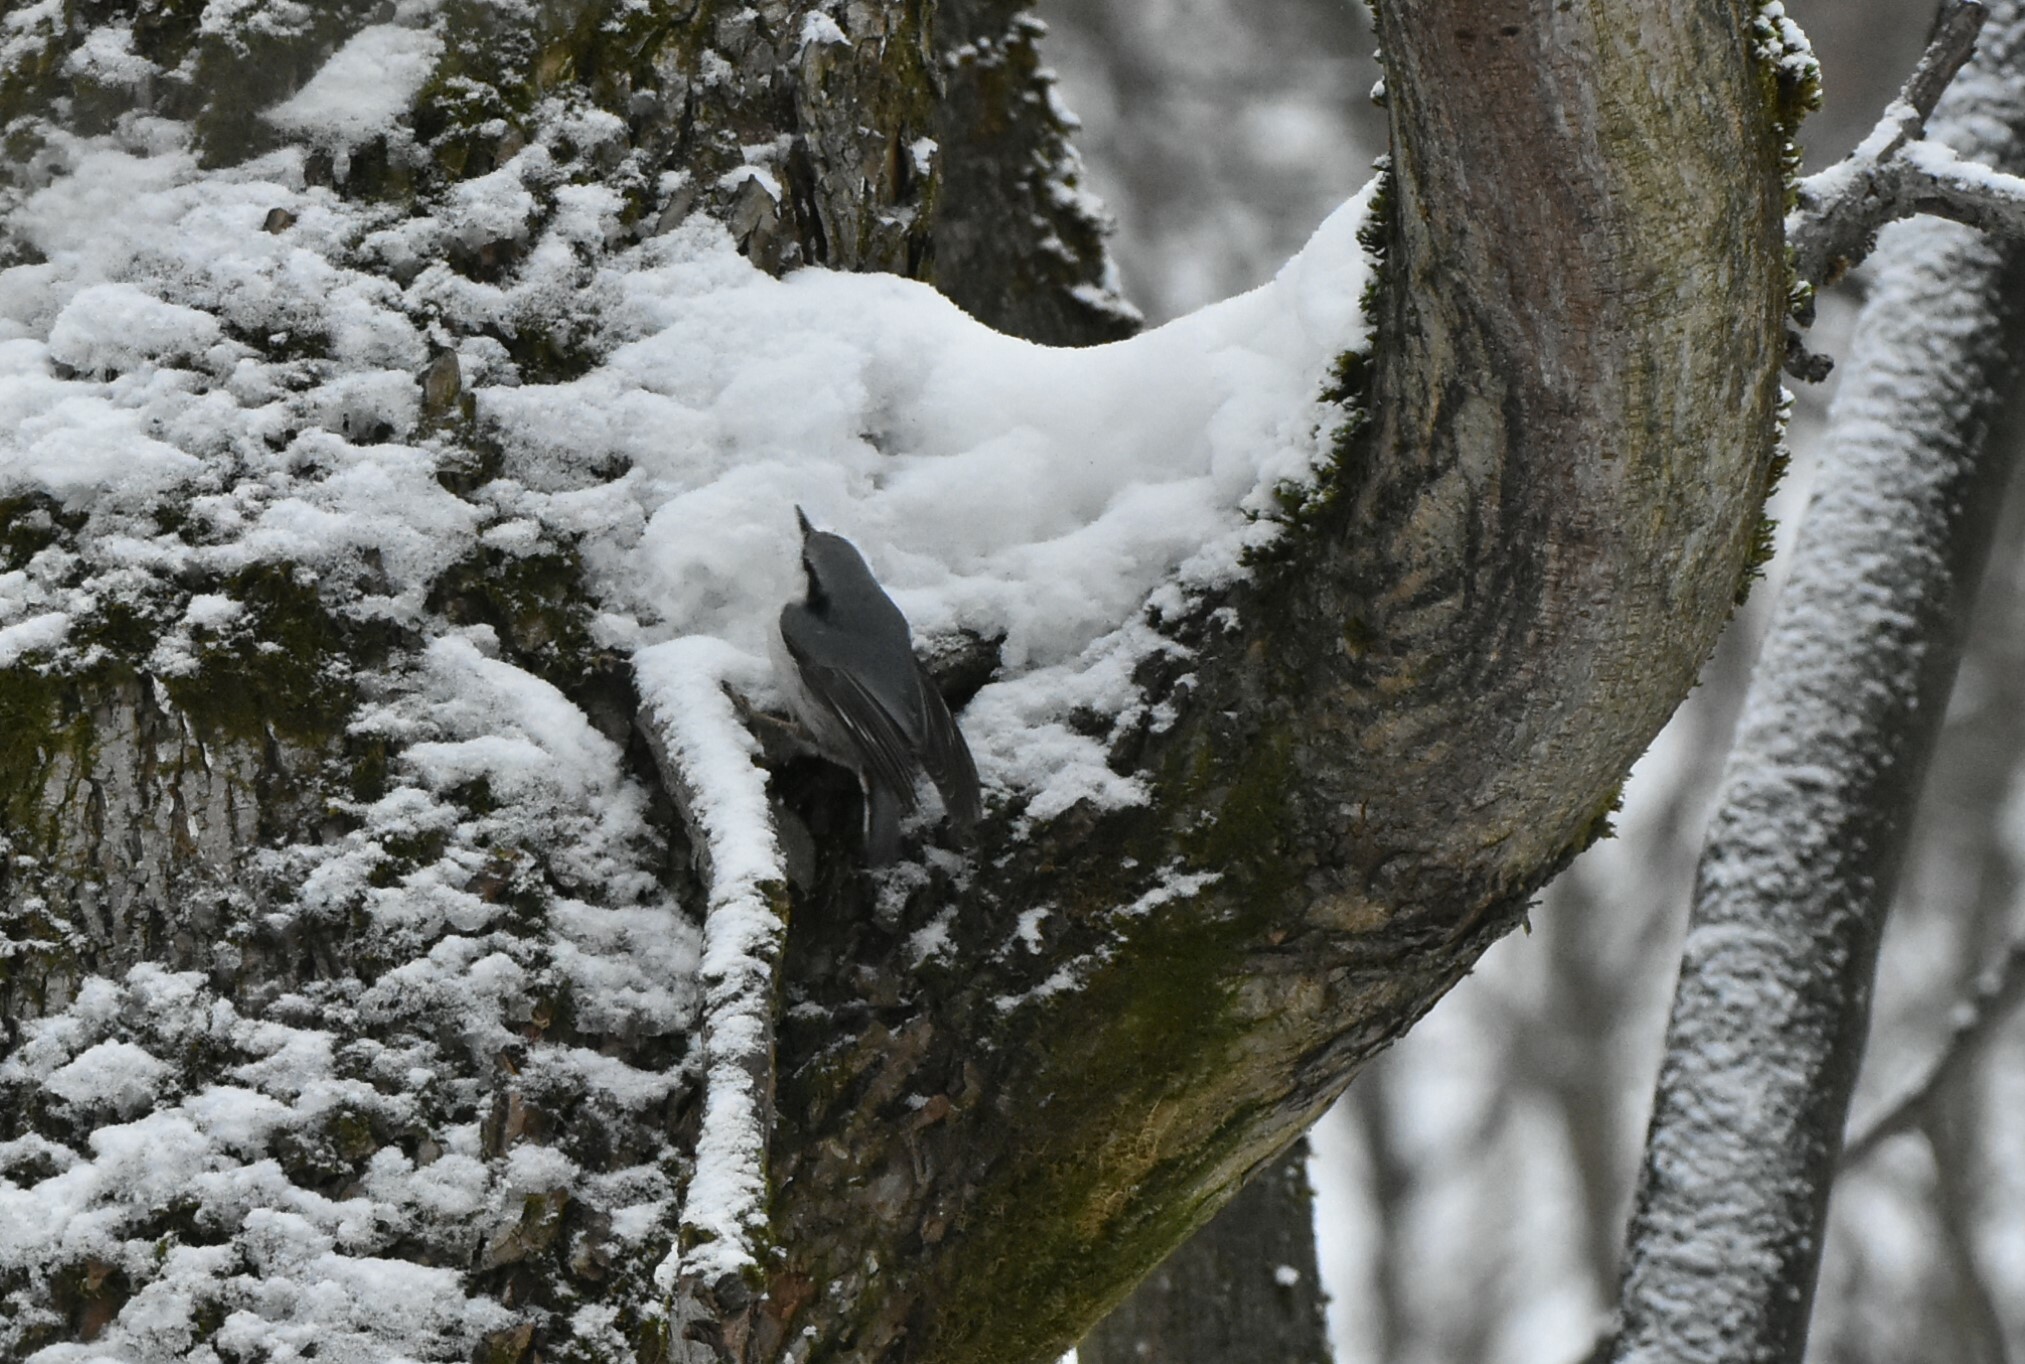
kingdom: Animalia
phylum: Chordata
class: Aves
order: Passeriformes
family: Sittidae
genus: Sitta
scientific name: Sitta europaea
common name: Eurasian nuthatch
